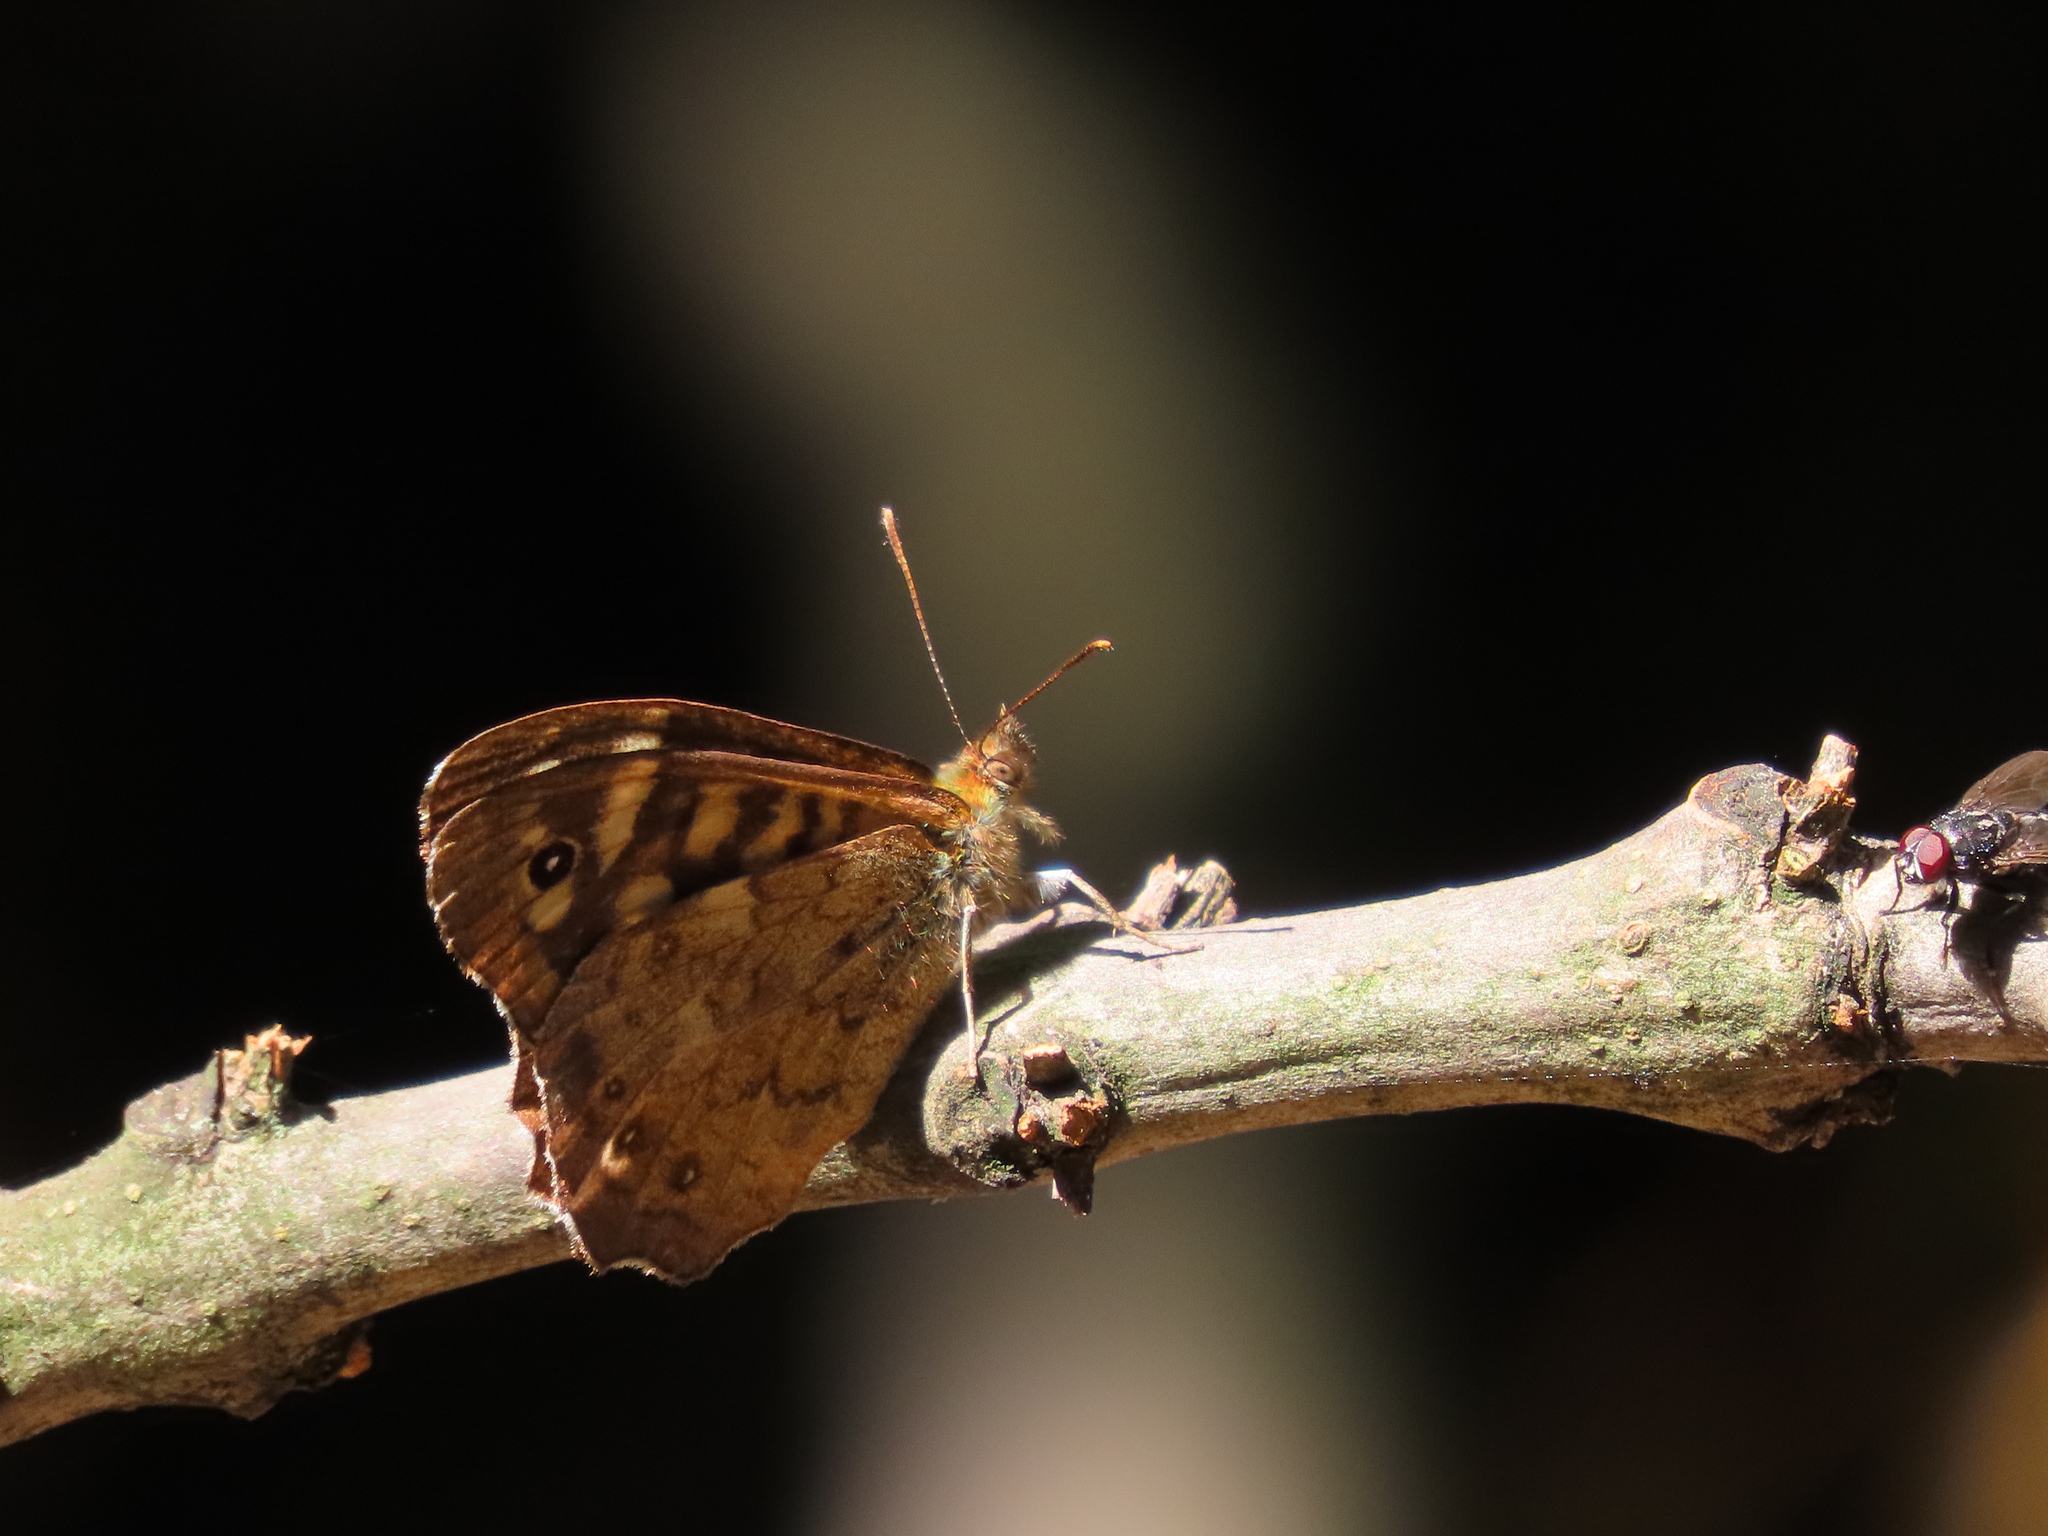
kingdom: Animalia
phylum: Arthropoda
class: Insecta
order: Lepidoptera
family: Nymphalidae
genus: Pararge
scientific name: Pararge aegeria
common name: Speckled wood
